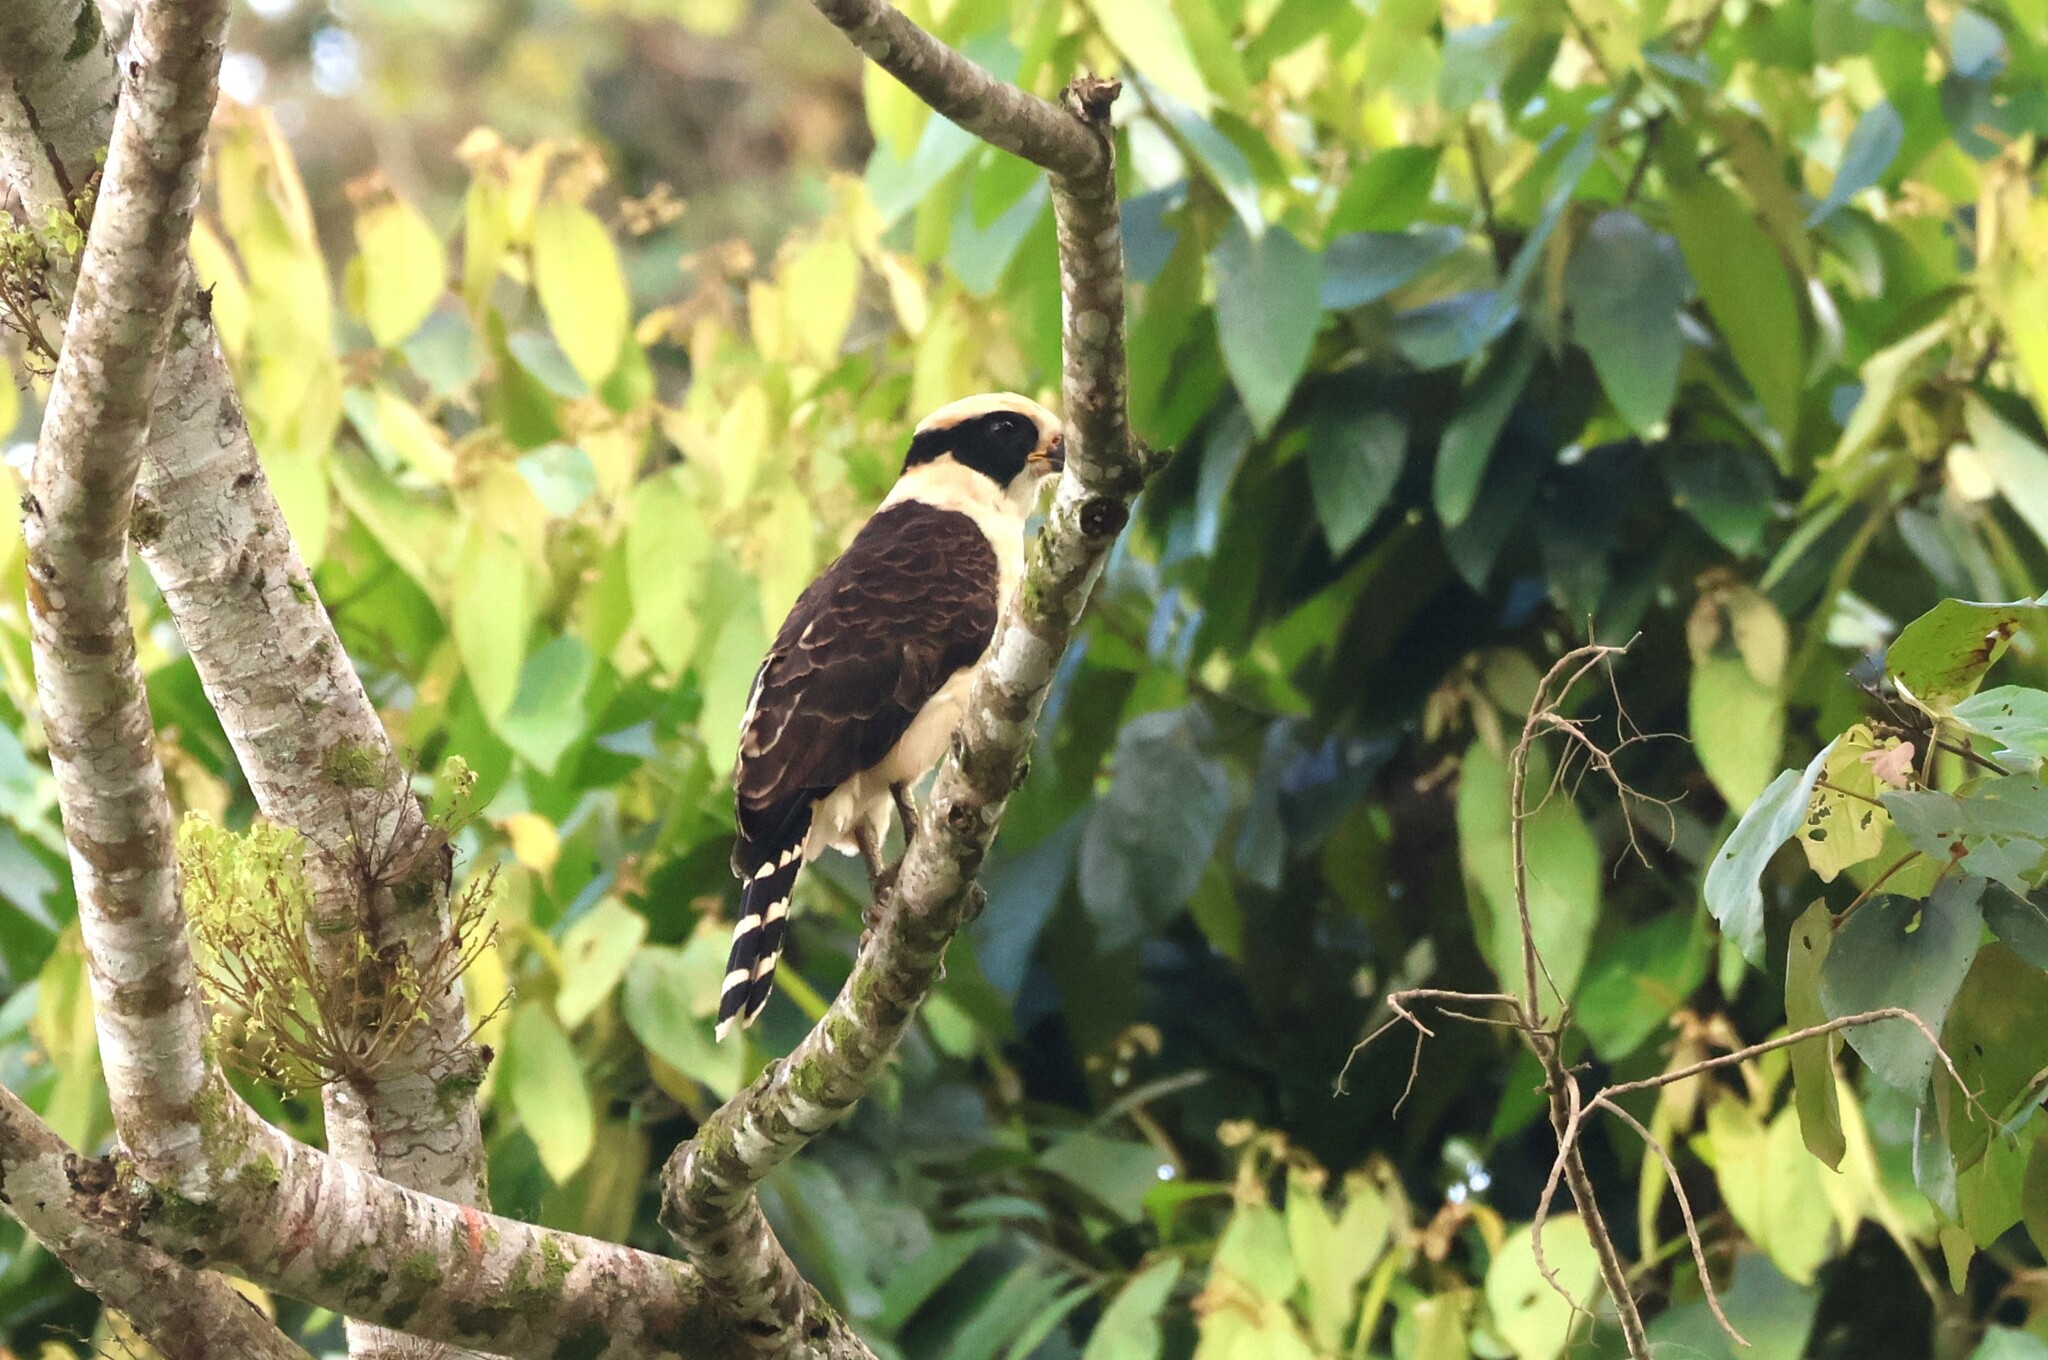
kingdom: Animalia
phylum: Chordata
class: Aves
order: Falconiformes
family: Falconidae
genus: Herpetotheres
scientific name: Herpetotheres cachinnans
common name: Laughing falcon
